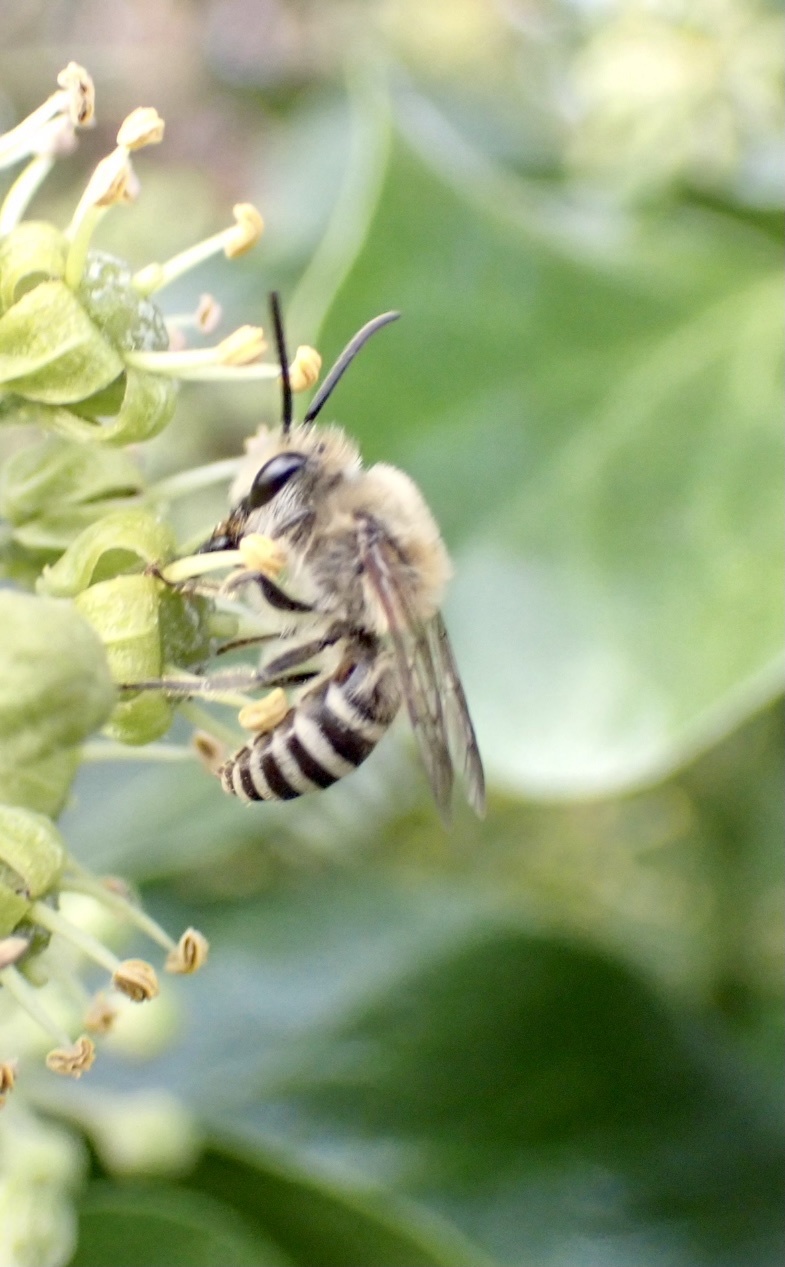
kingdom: Animalia
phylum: Arthropoda
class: Insecta
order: Hymenoptera
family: Colletidae
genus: Colletes
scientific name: Colletes hederae
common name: Ivy bee
